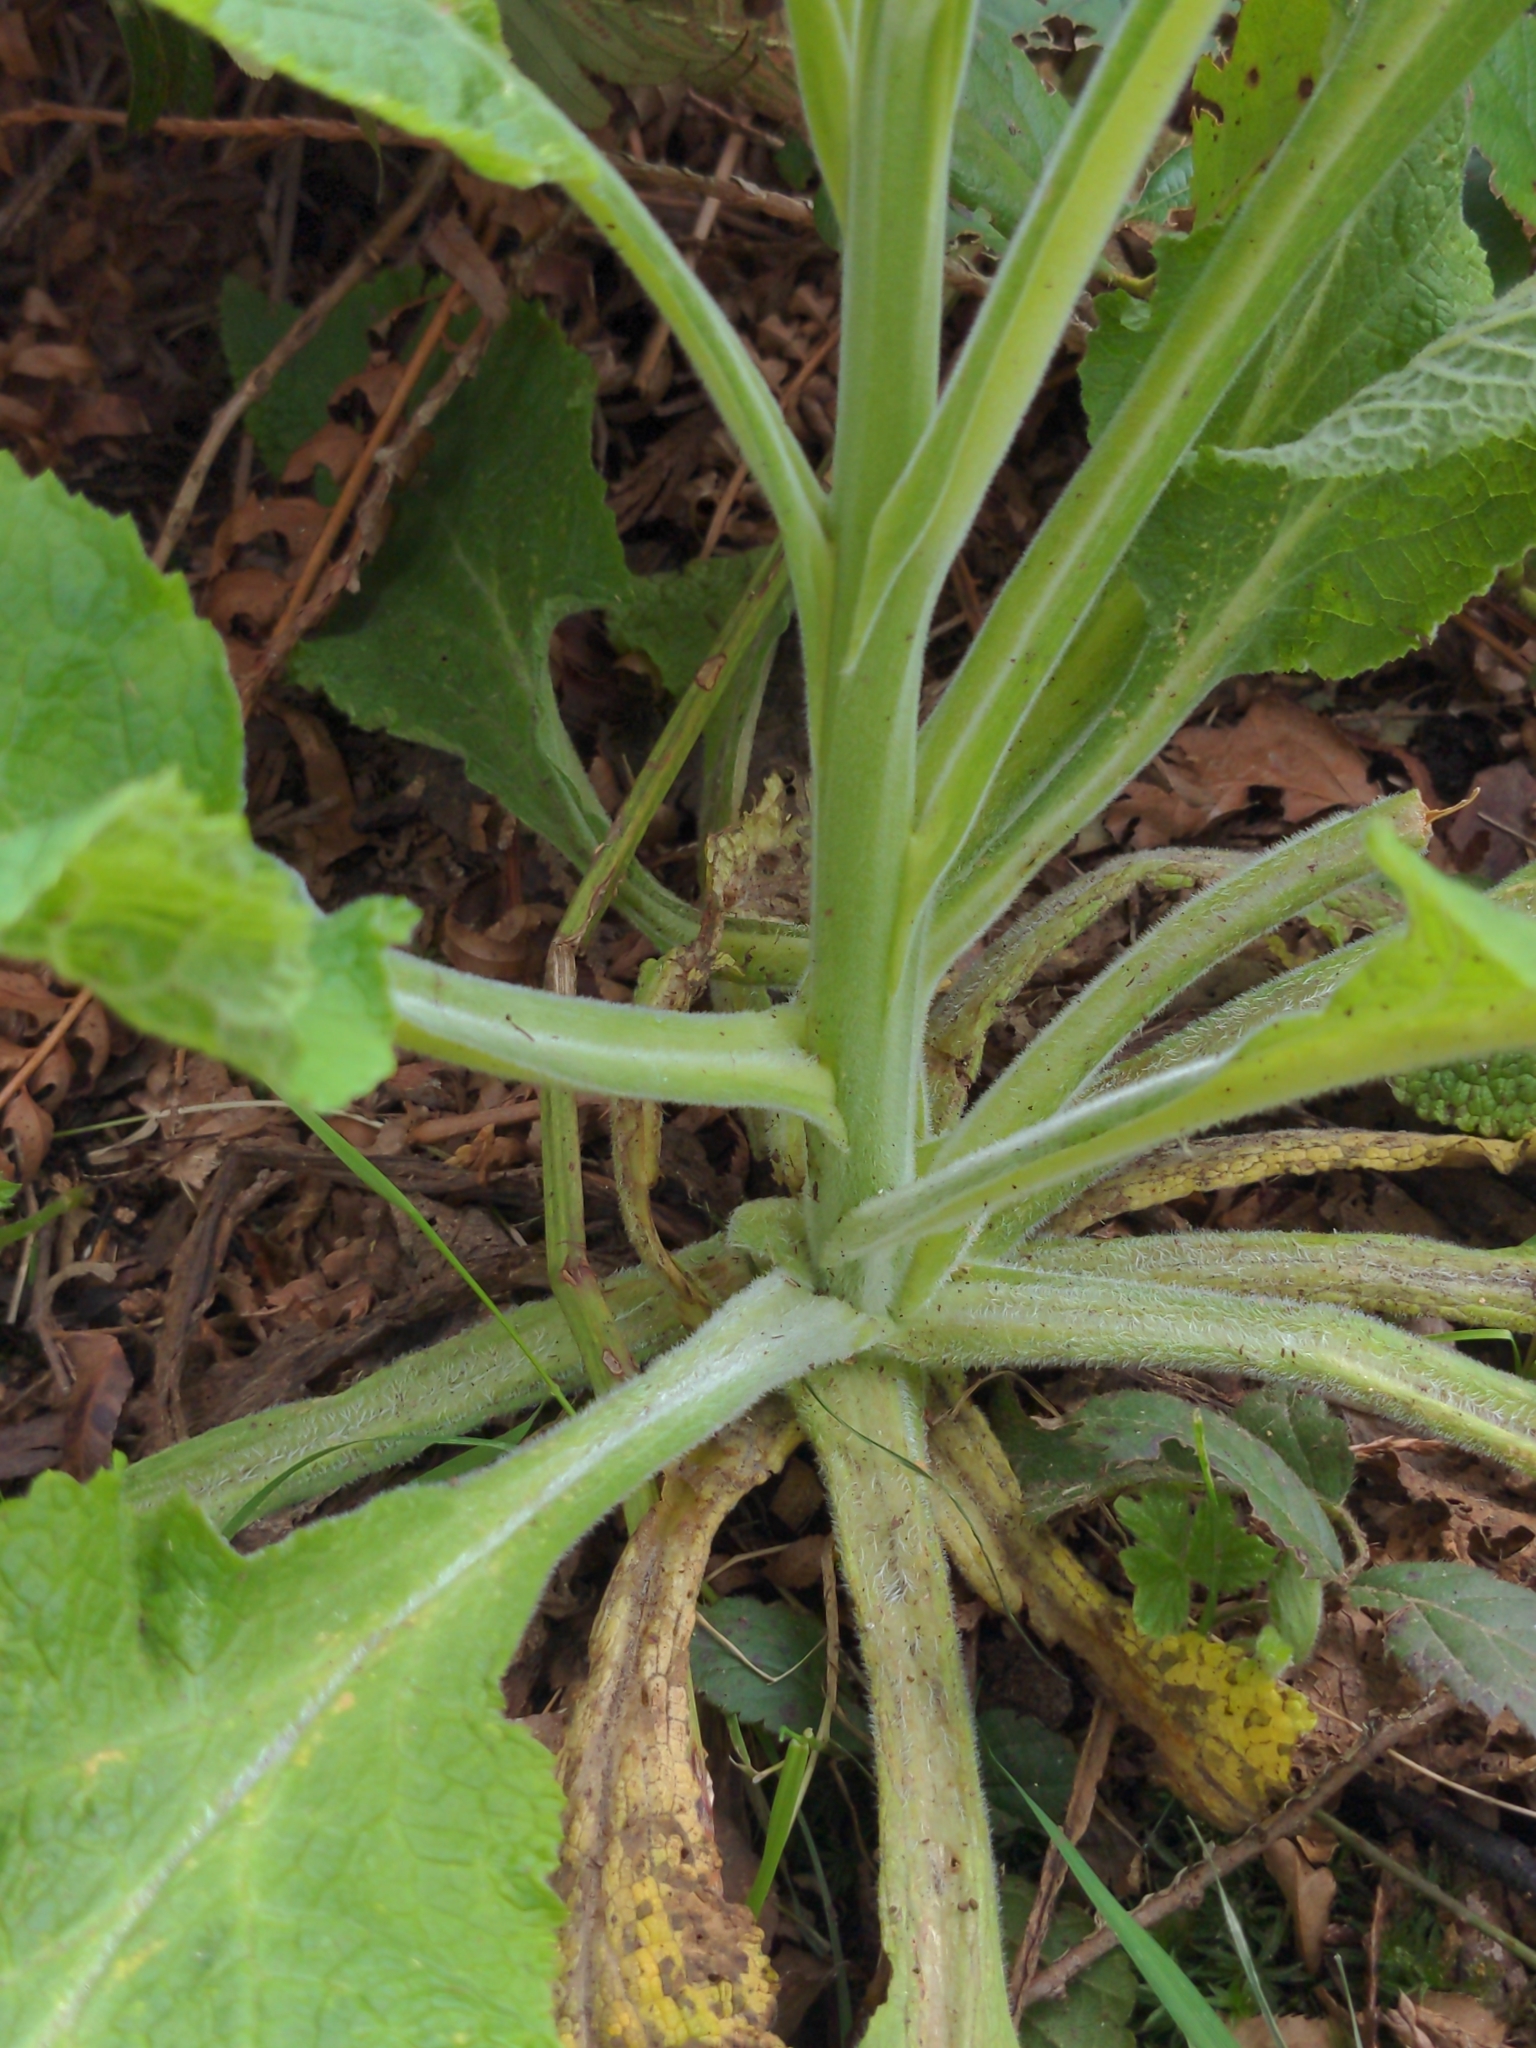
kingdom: Plantae
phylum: Tracheophyta
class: Magnoliopsida
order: Lamiales
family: Plantaginaceae
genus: Digitalis
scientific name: Digitalis purpurea
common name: Foxglove
